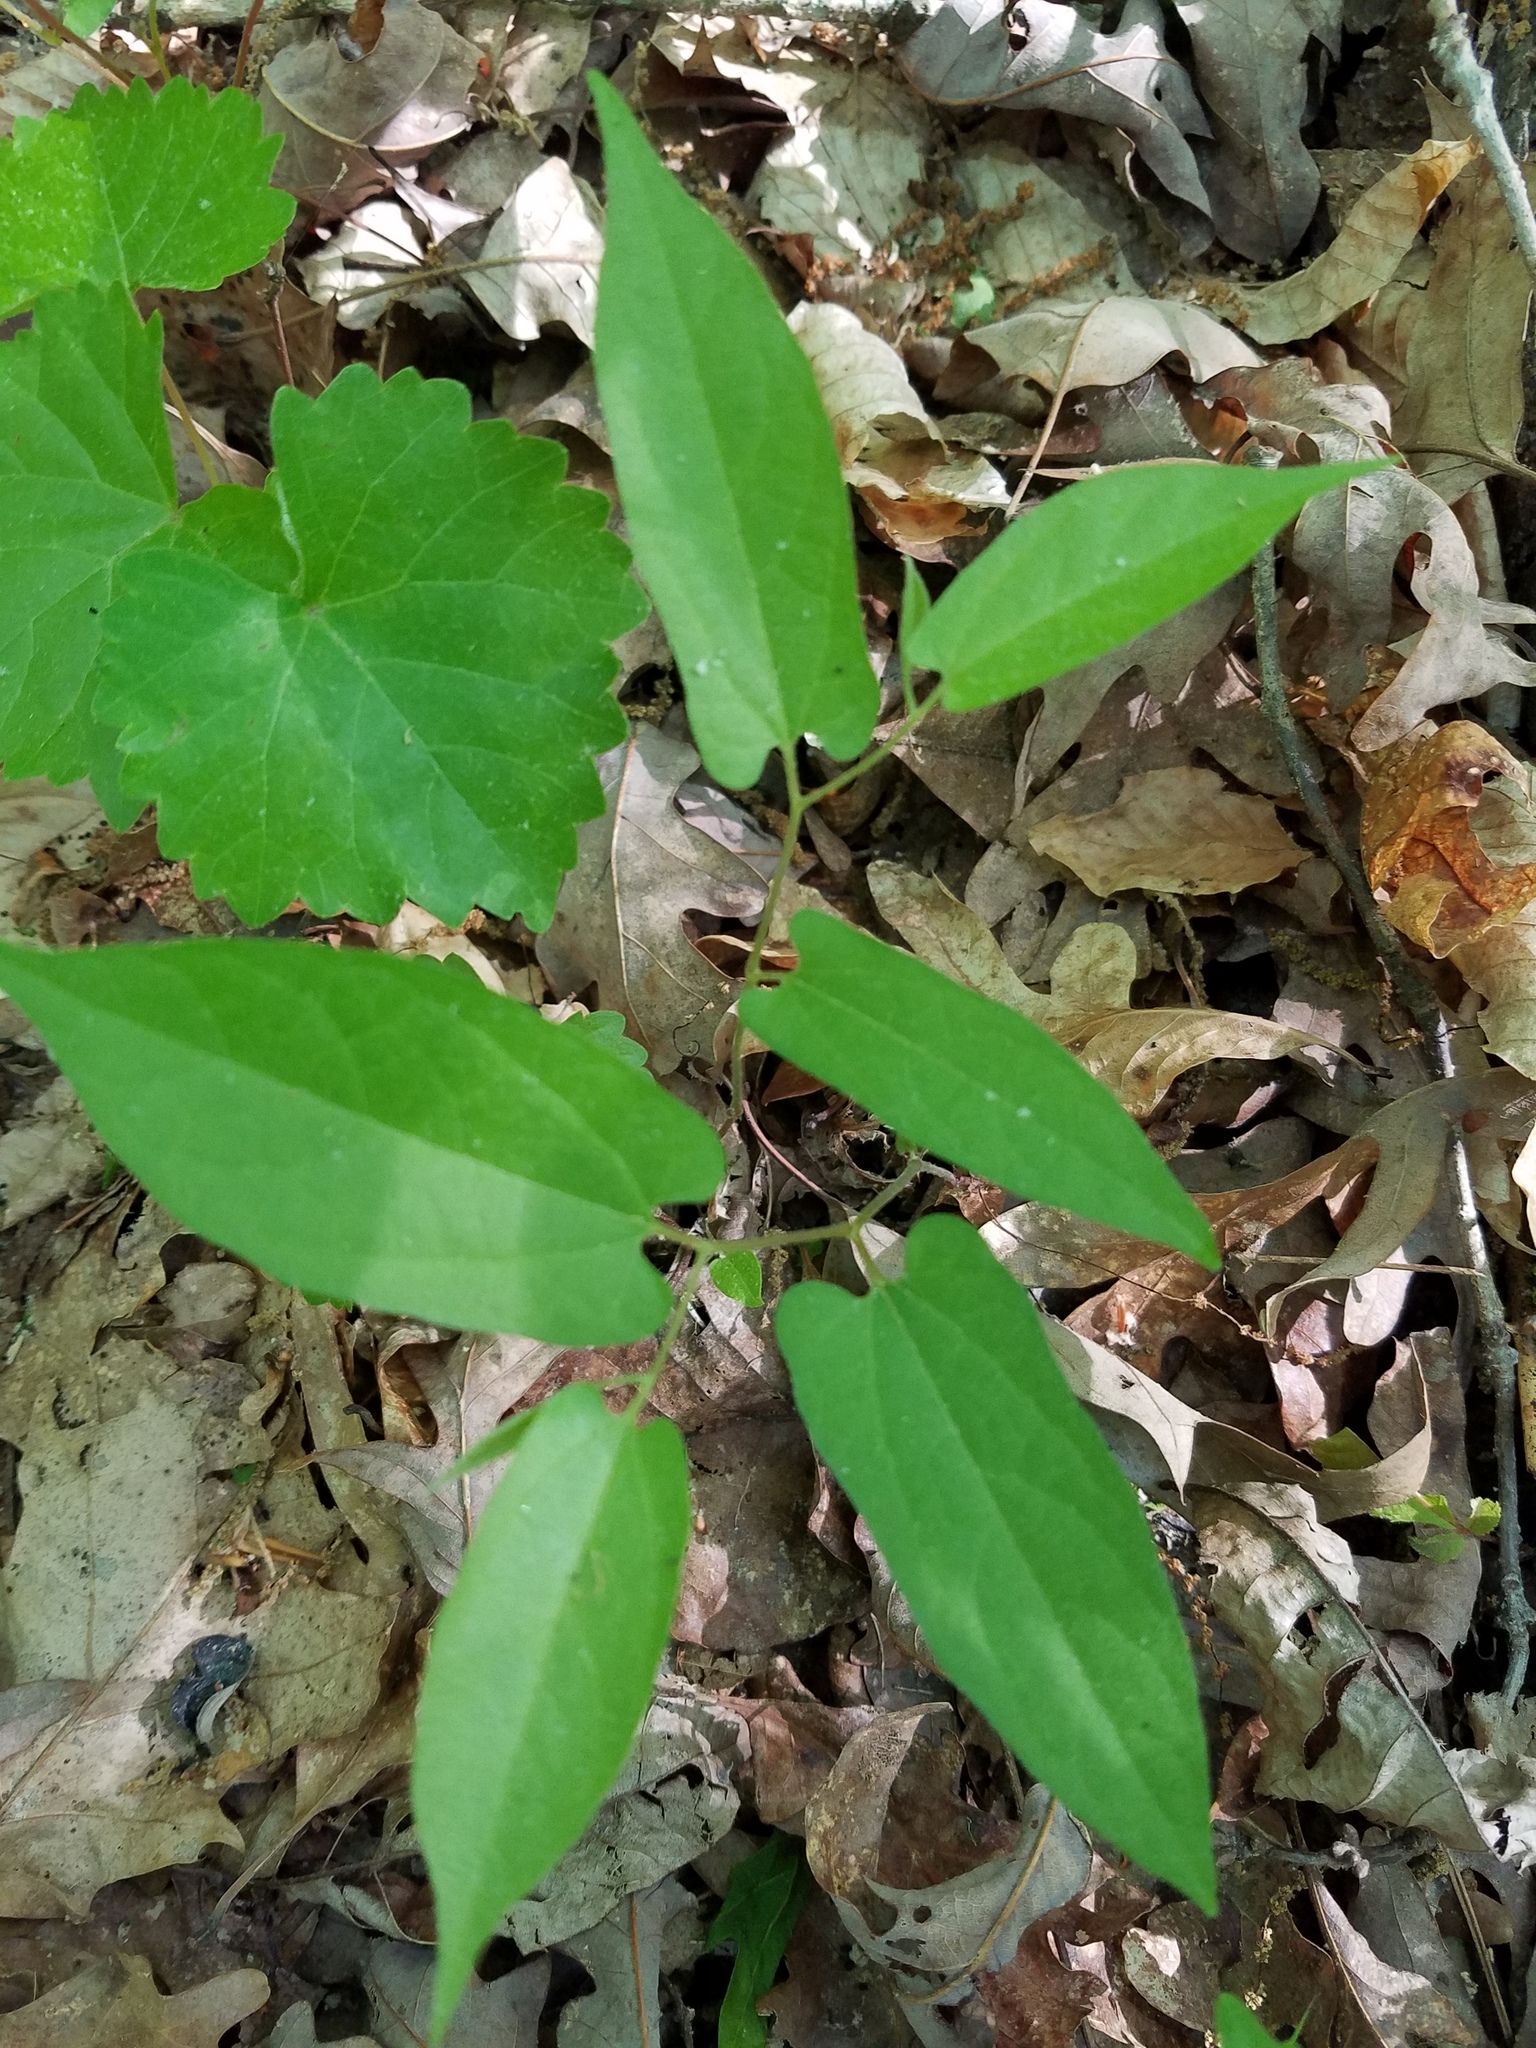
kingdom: Plantae
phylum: Tracheophyta
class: Magnoliopsida
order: Piperales
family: Aristolochiaceae
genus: Endodeca
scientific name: Endodeca serpentaria
